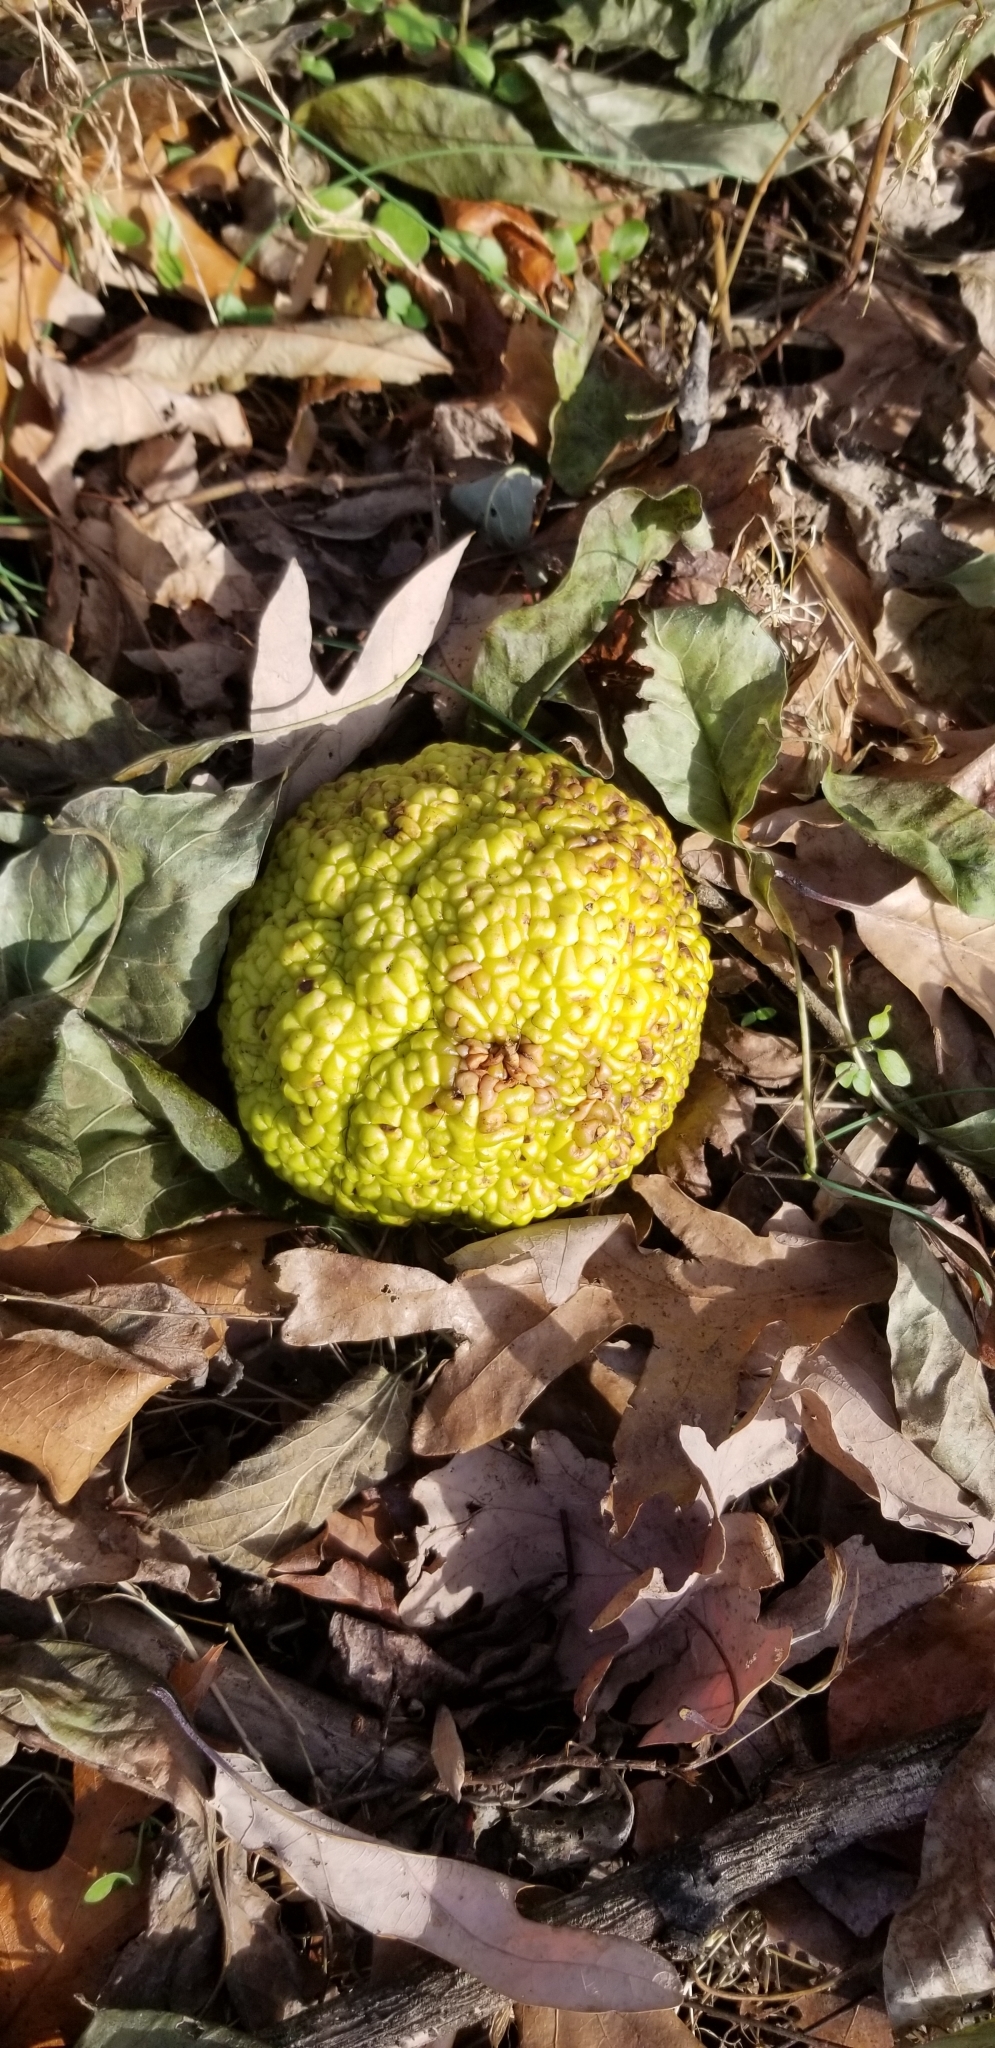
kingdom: Plantae
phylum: Tracheophyta
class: Magnoliopsida
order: Rosales
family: Moraceae
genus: Maclura
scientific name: Maclura pomifera
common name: Osage-orange
